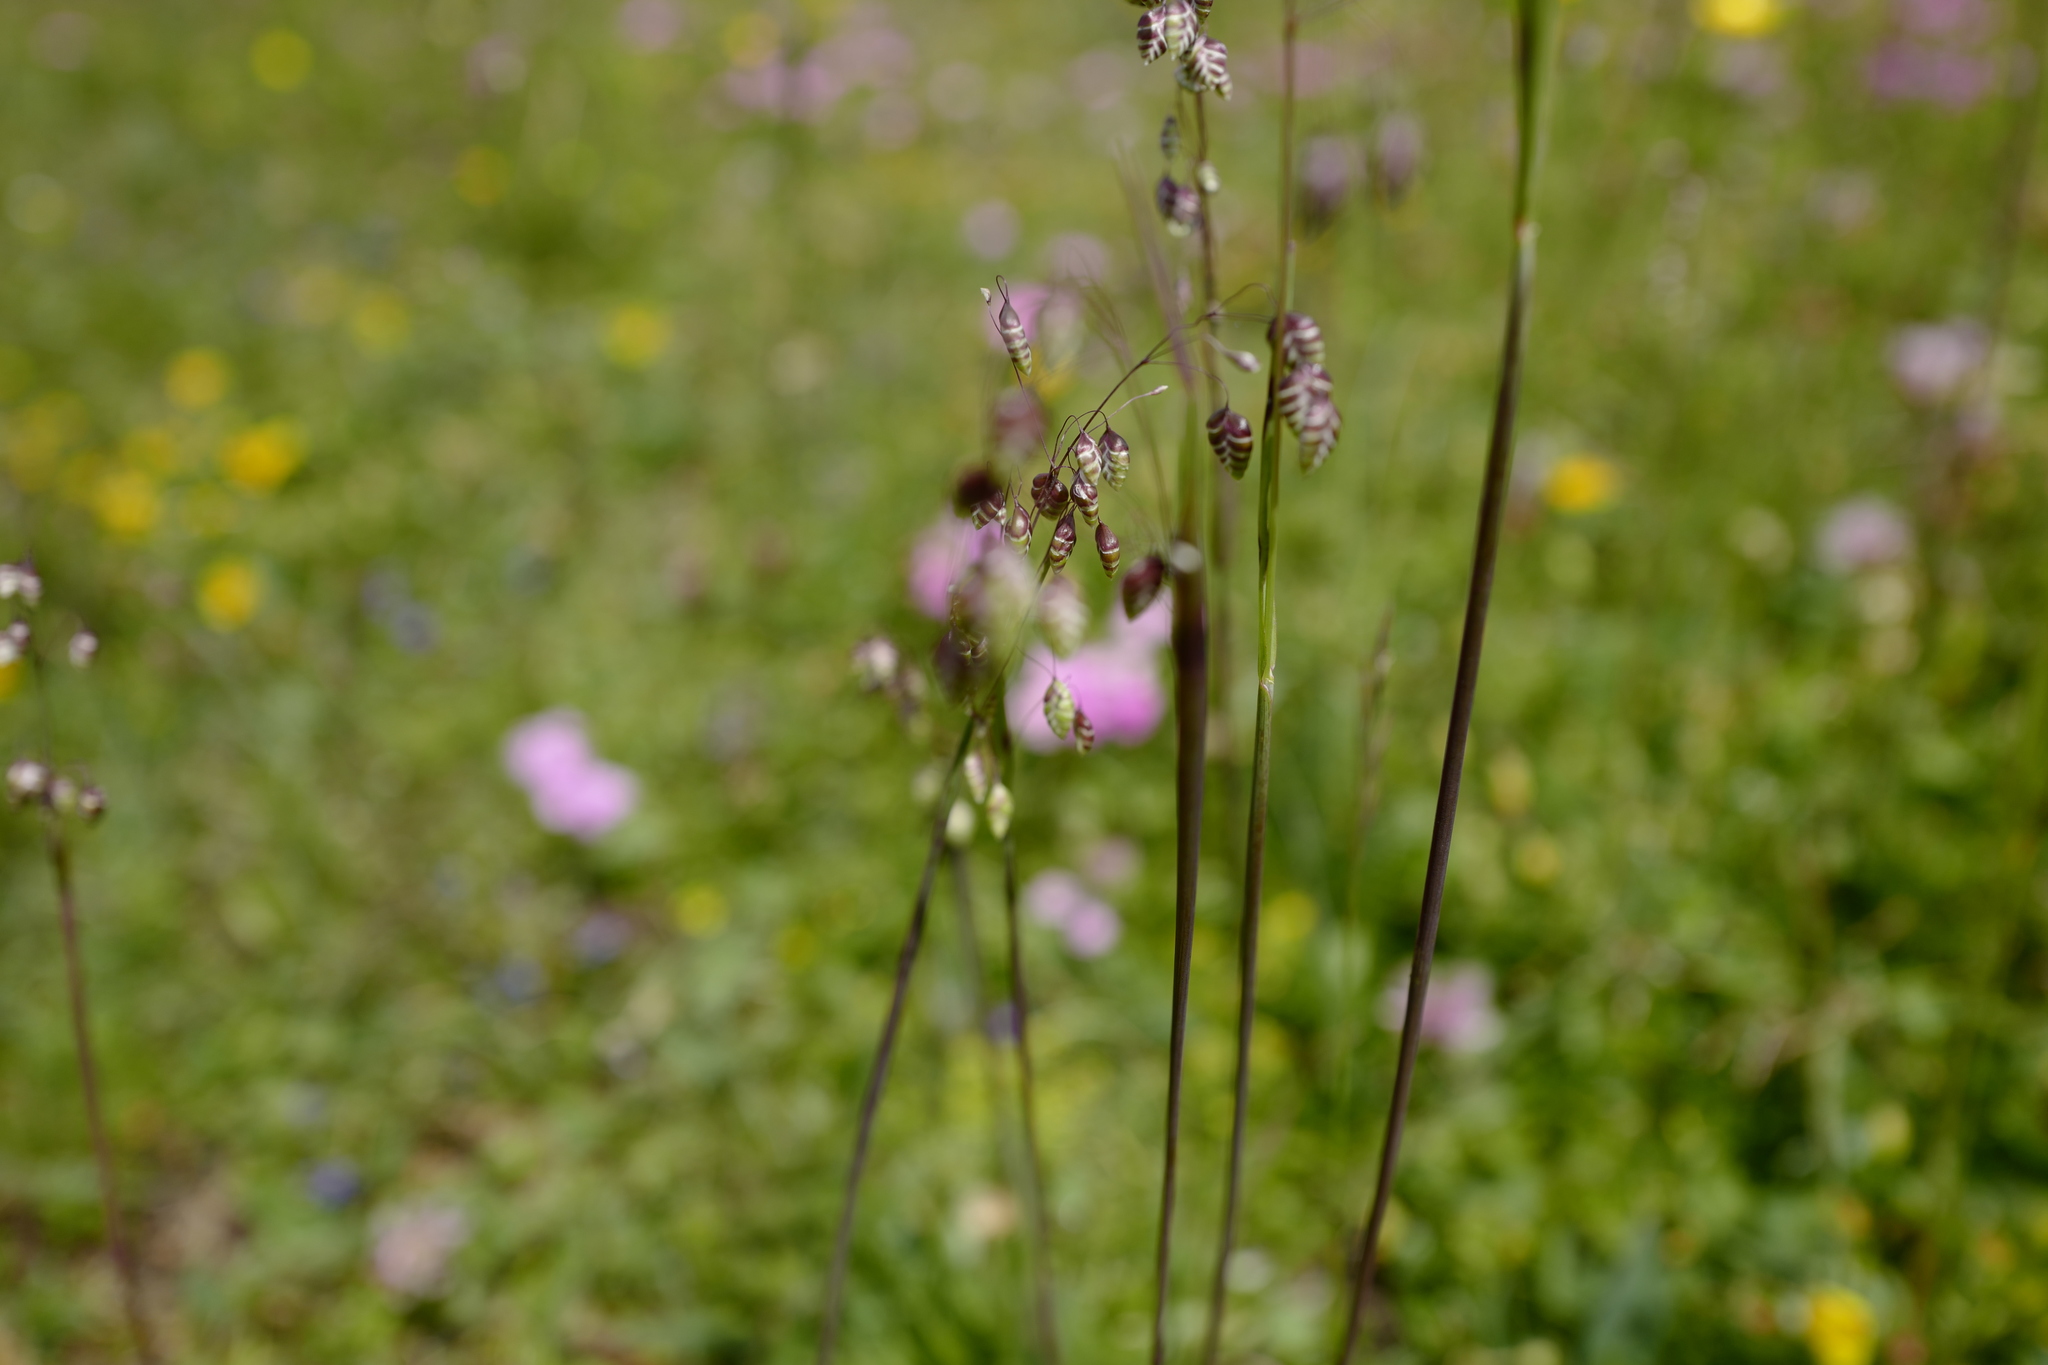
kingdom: Plantae
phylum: Tracheophyta
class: Liliopsida
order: Poales
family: Poaceae
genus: Briza
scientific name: Briza media
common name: Quaking grass
